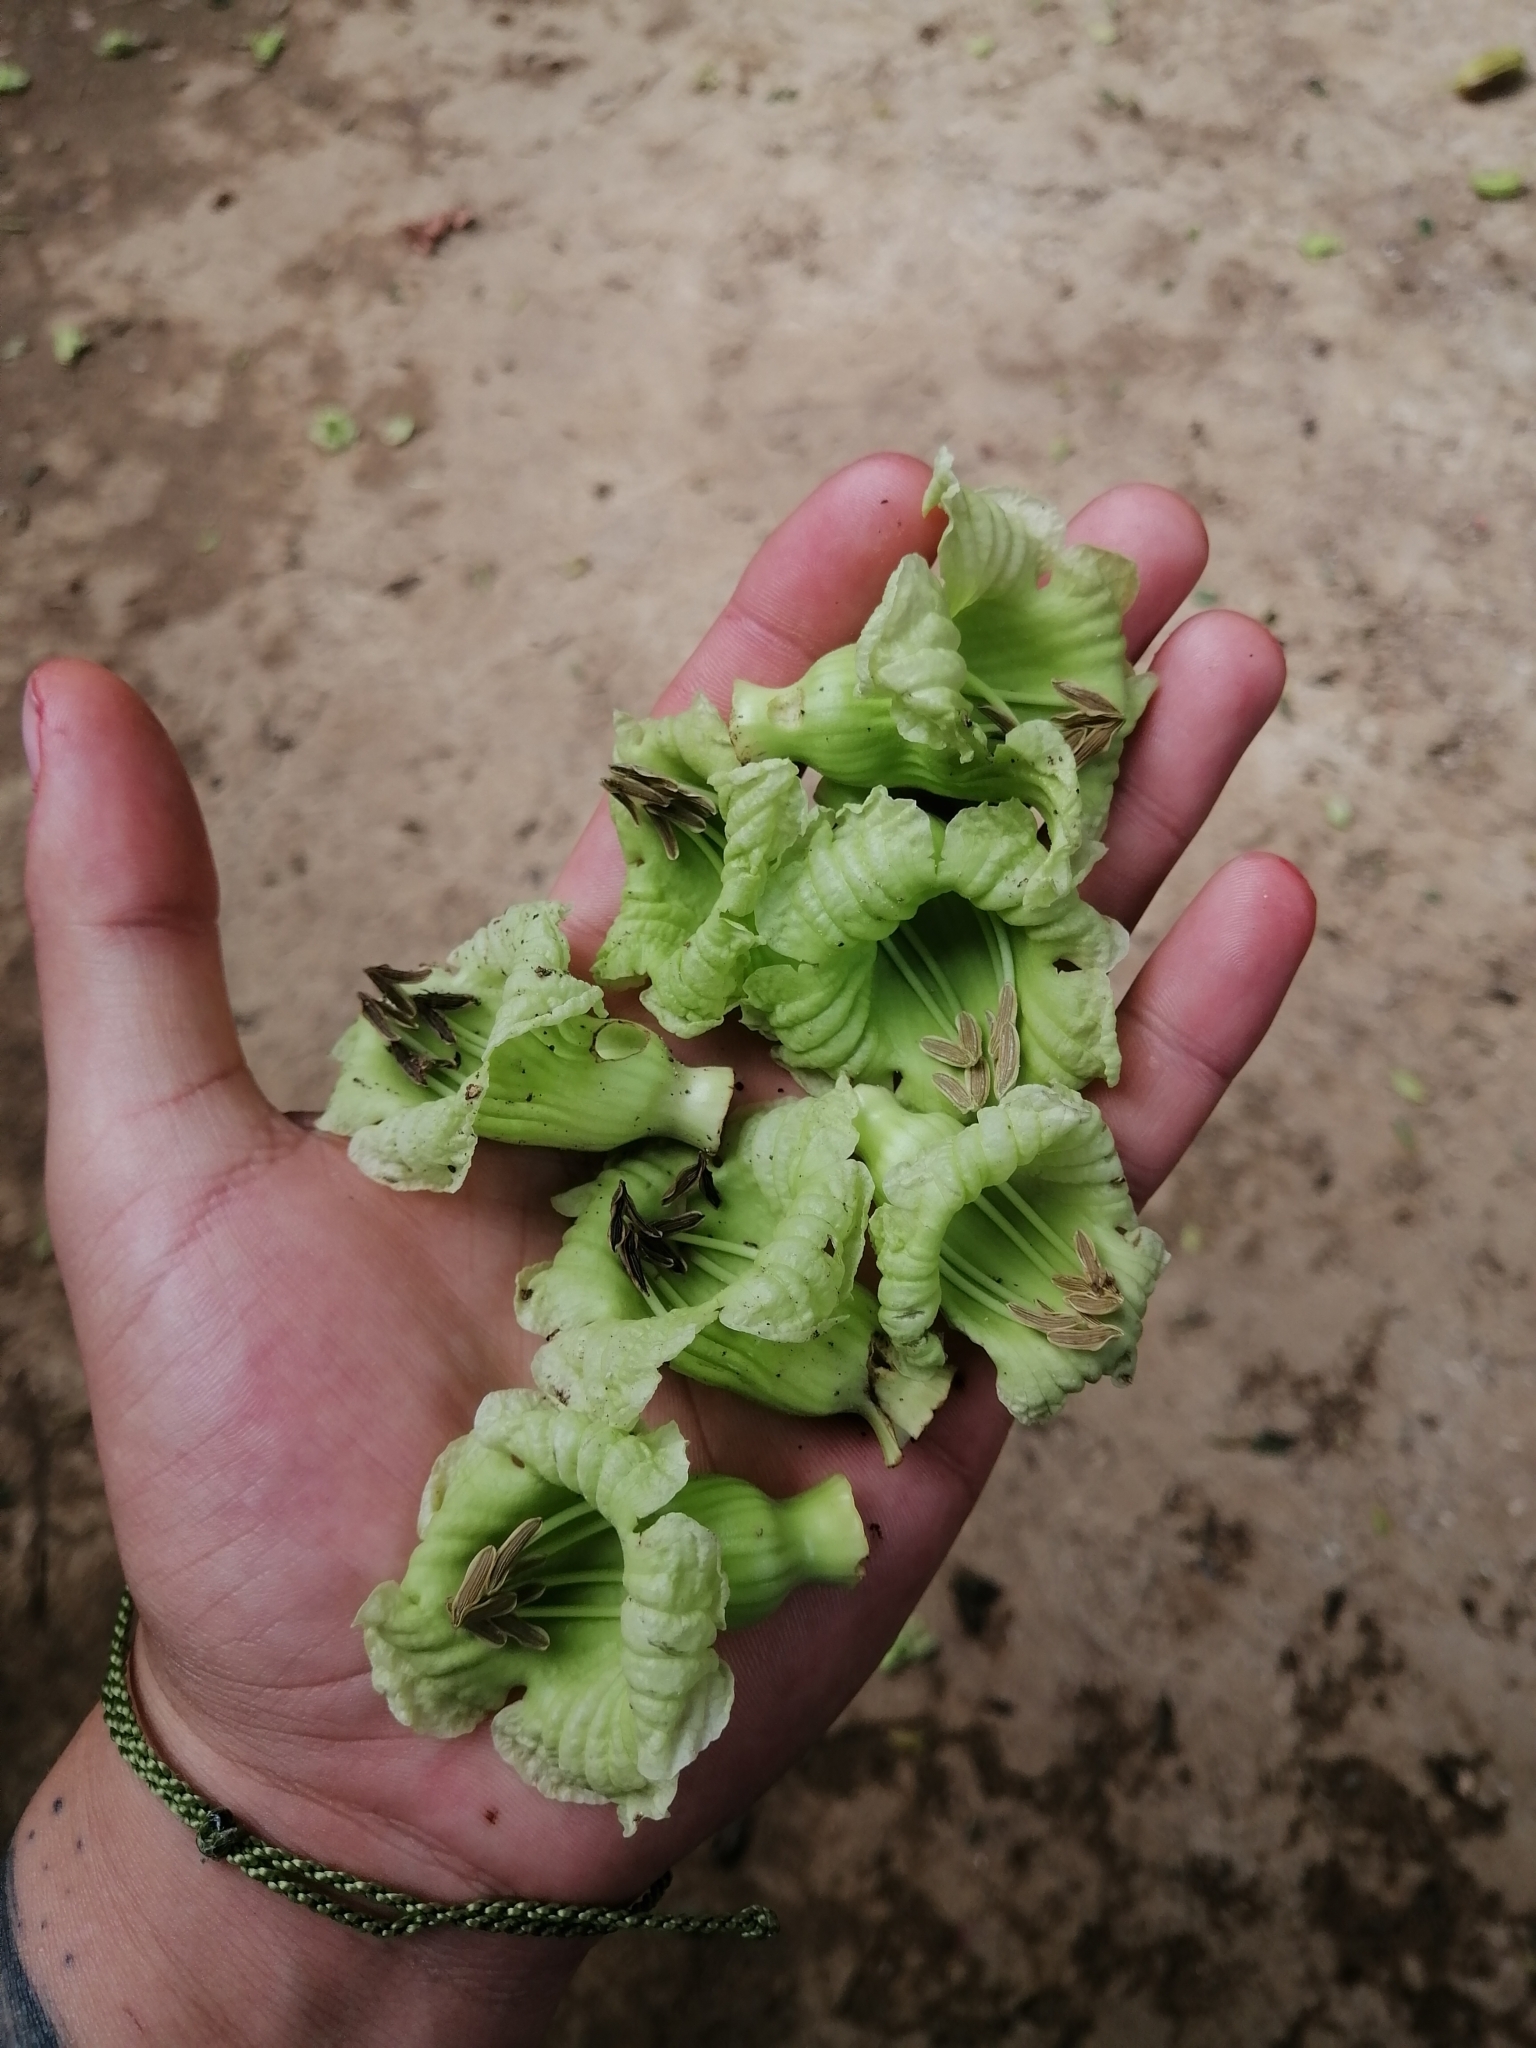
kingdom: Plantae
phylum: Tracheophyta
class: Magnoliopsida
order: Lamiales
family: Bignoniaceae
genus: Parmentiera
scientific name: Parmentiera aculeata
